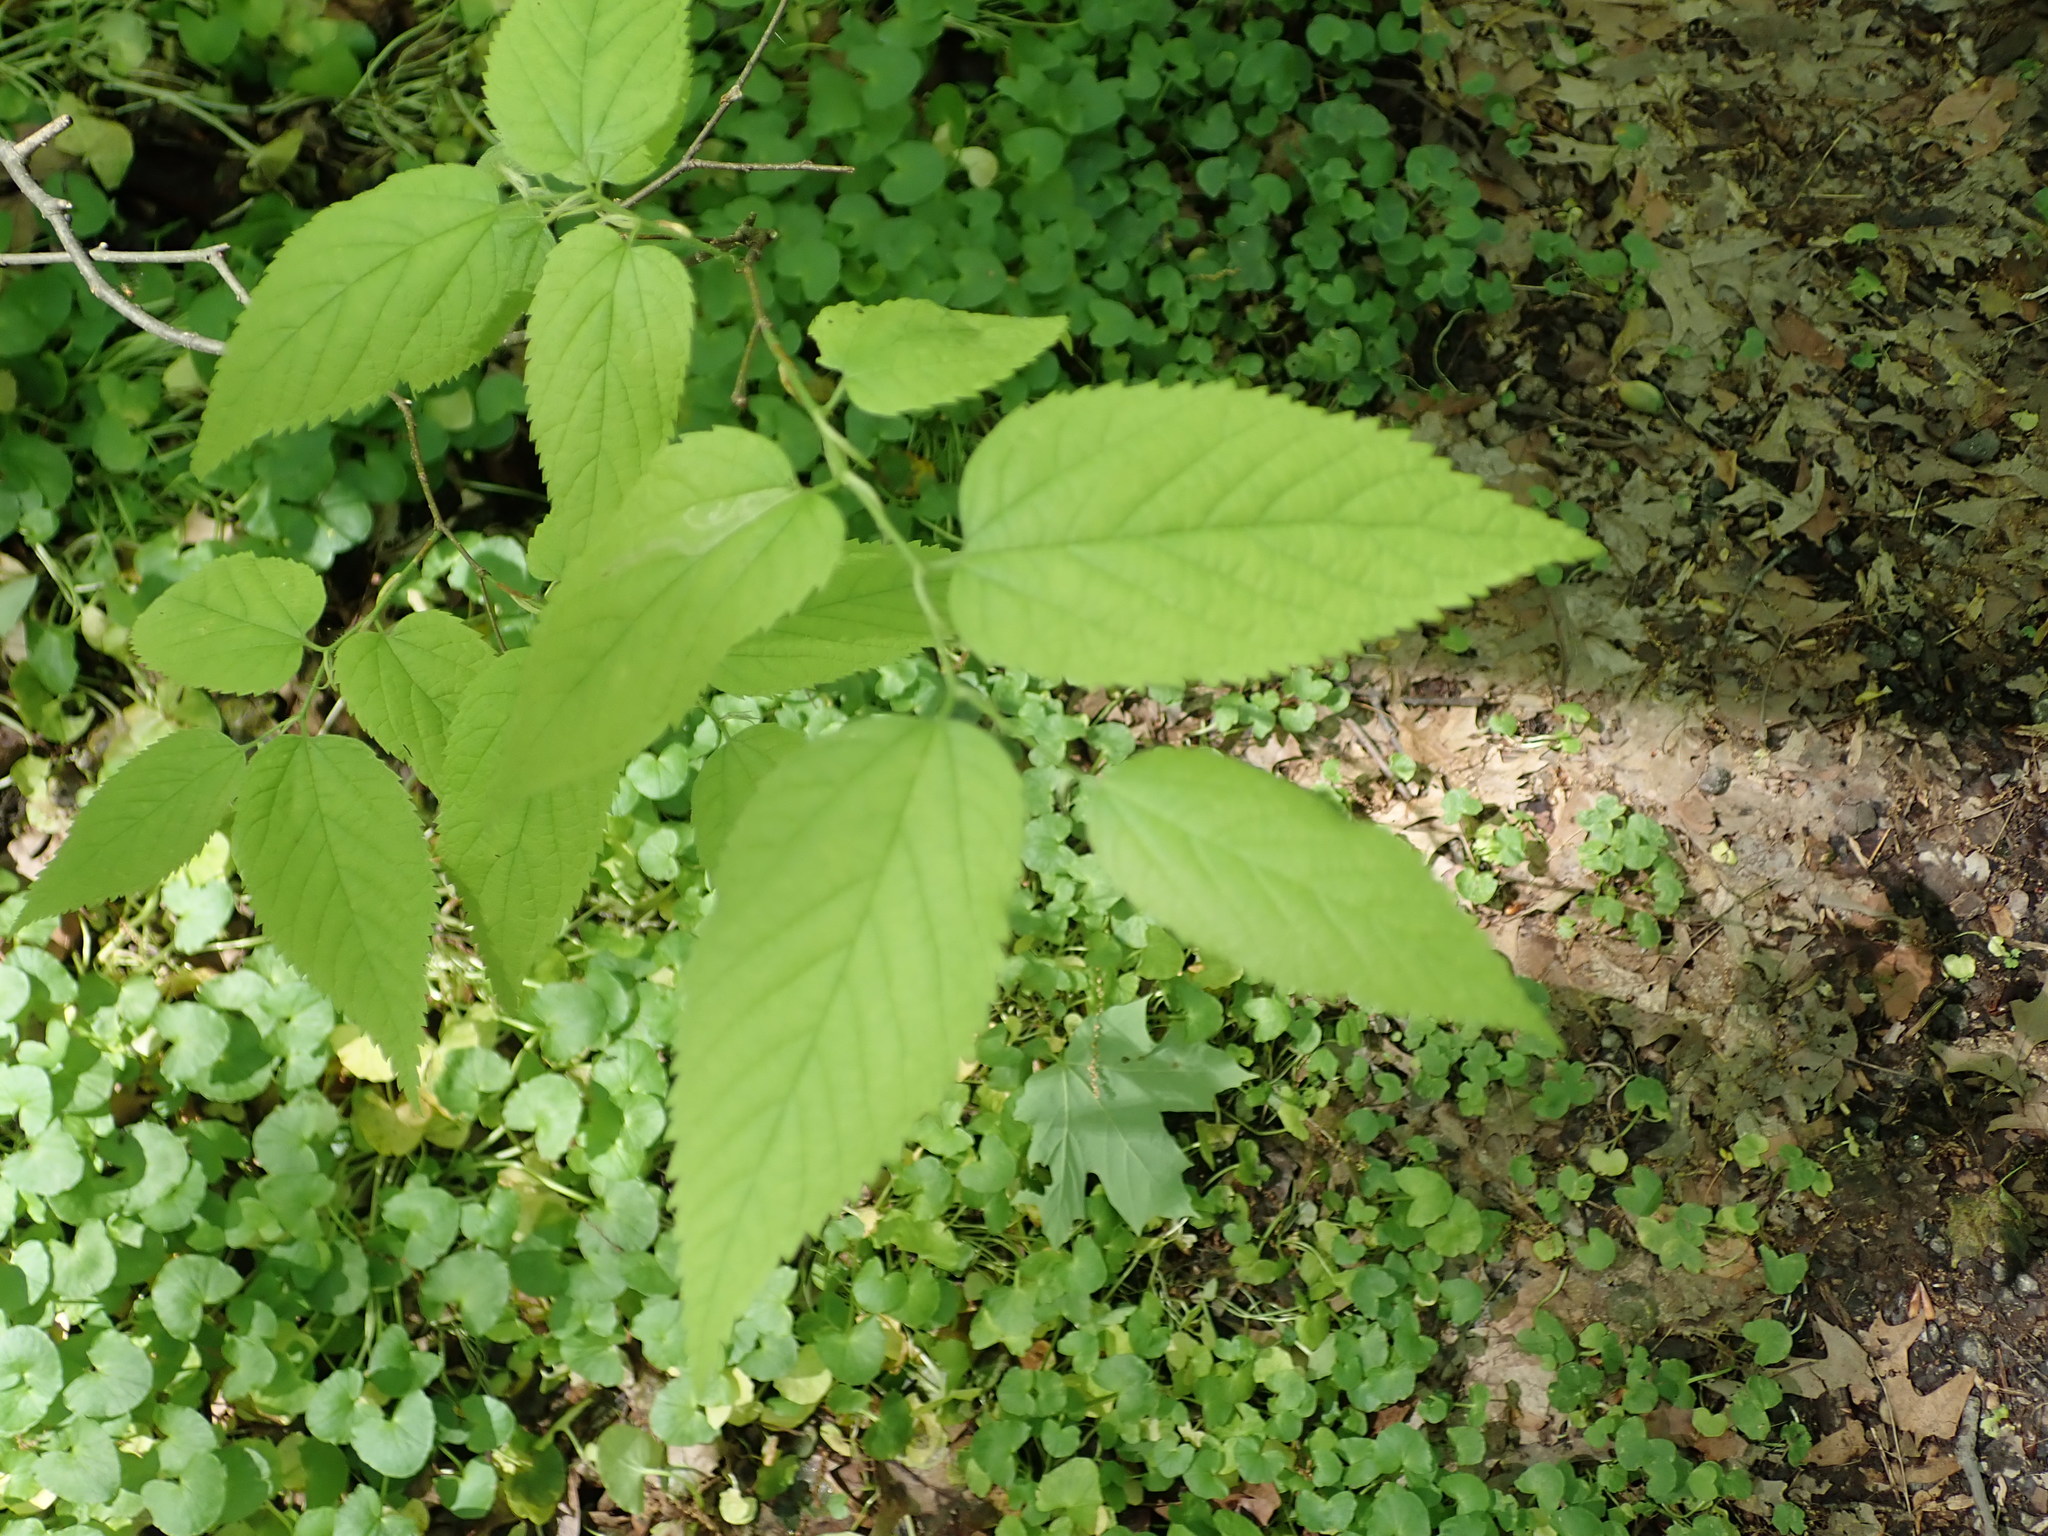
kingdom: Plantae
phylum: Tracheophyta
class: Magnoliopsida
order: Rosales
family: Cannabaceae
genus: Celtis
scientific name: Celtis occidentalis
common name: Common hackberry
